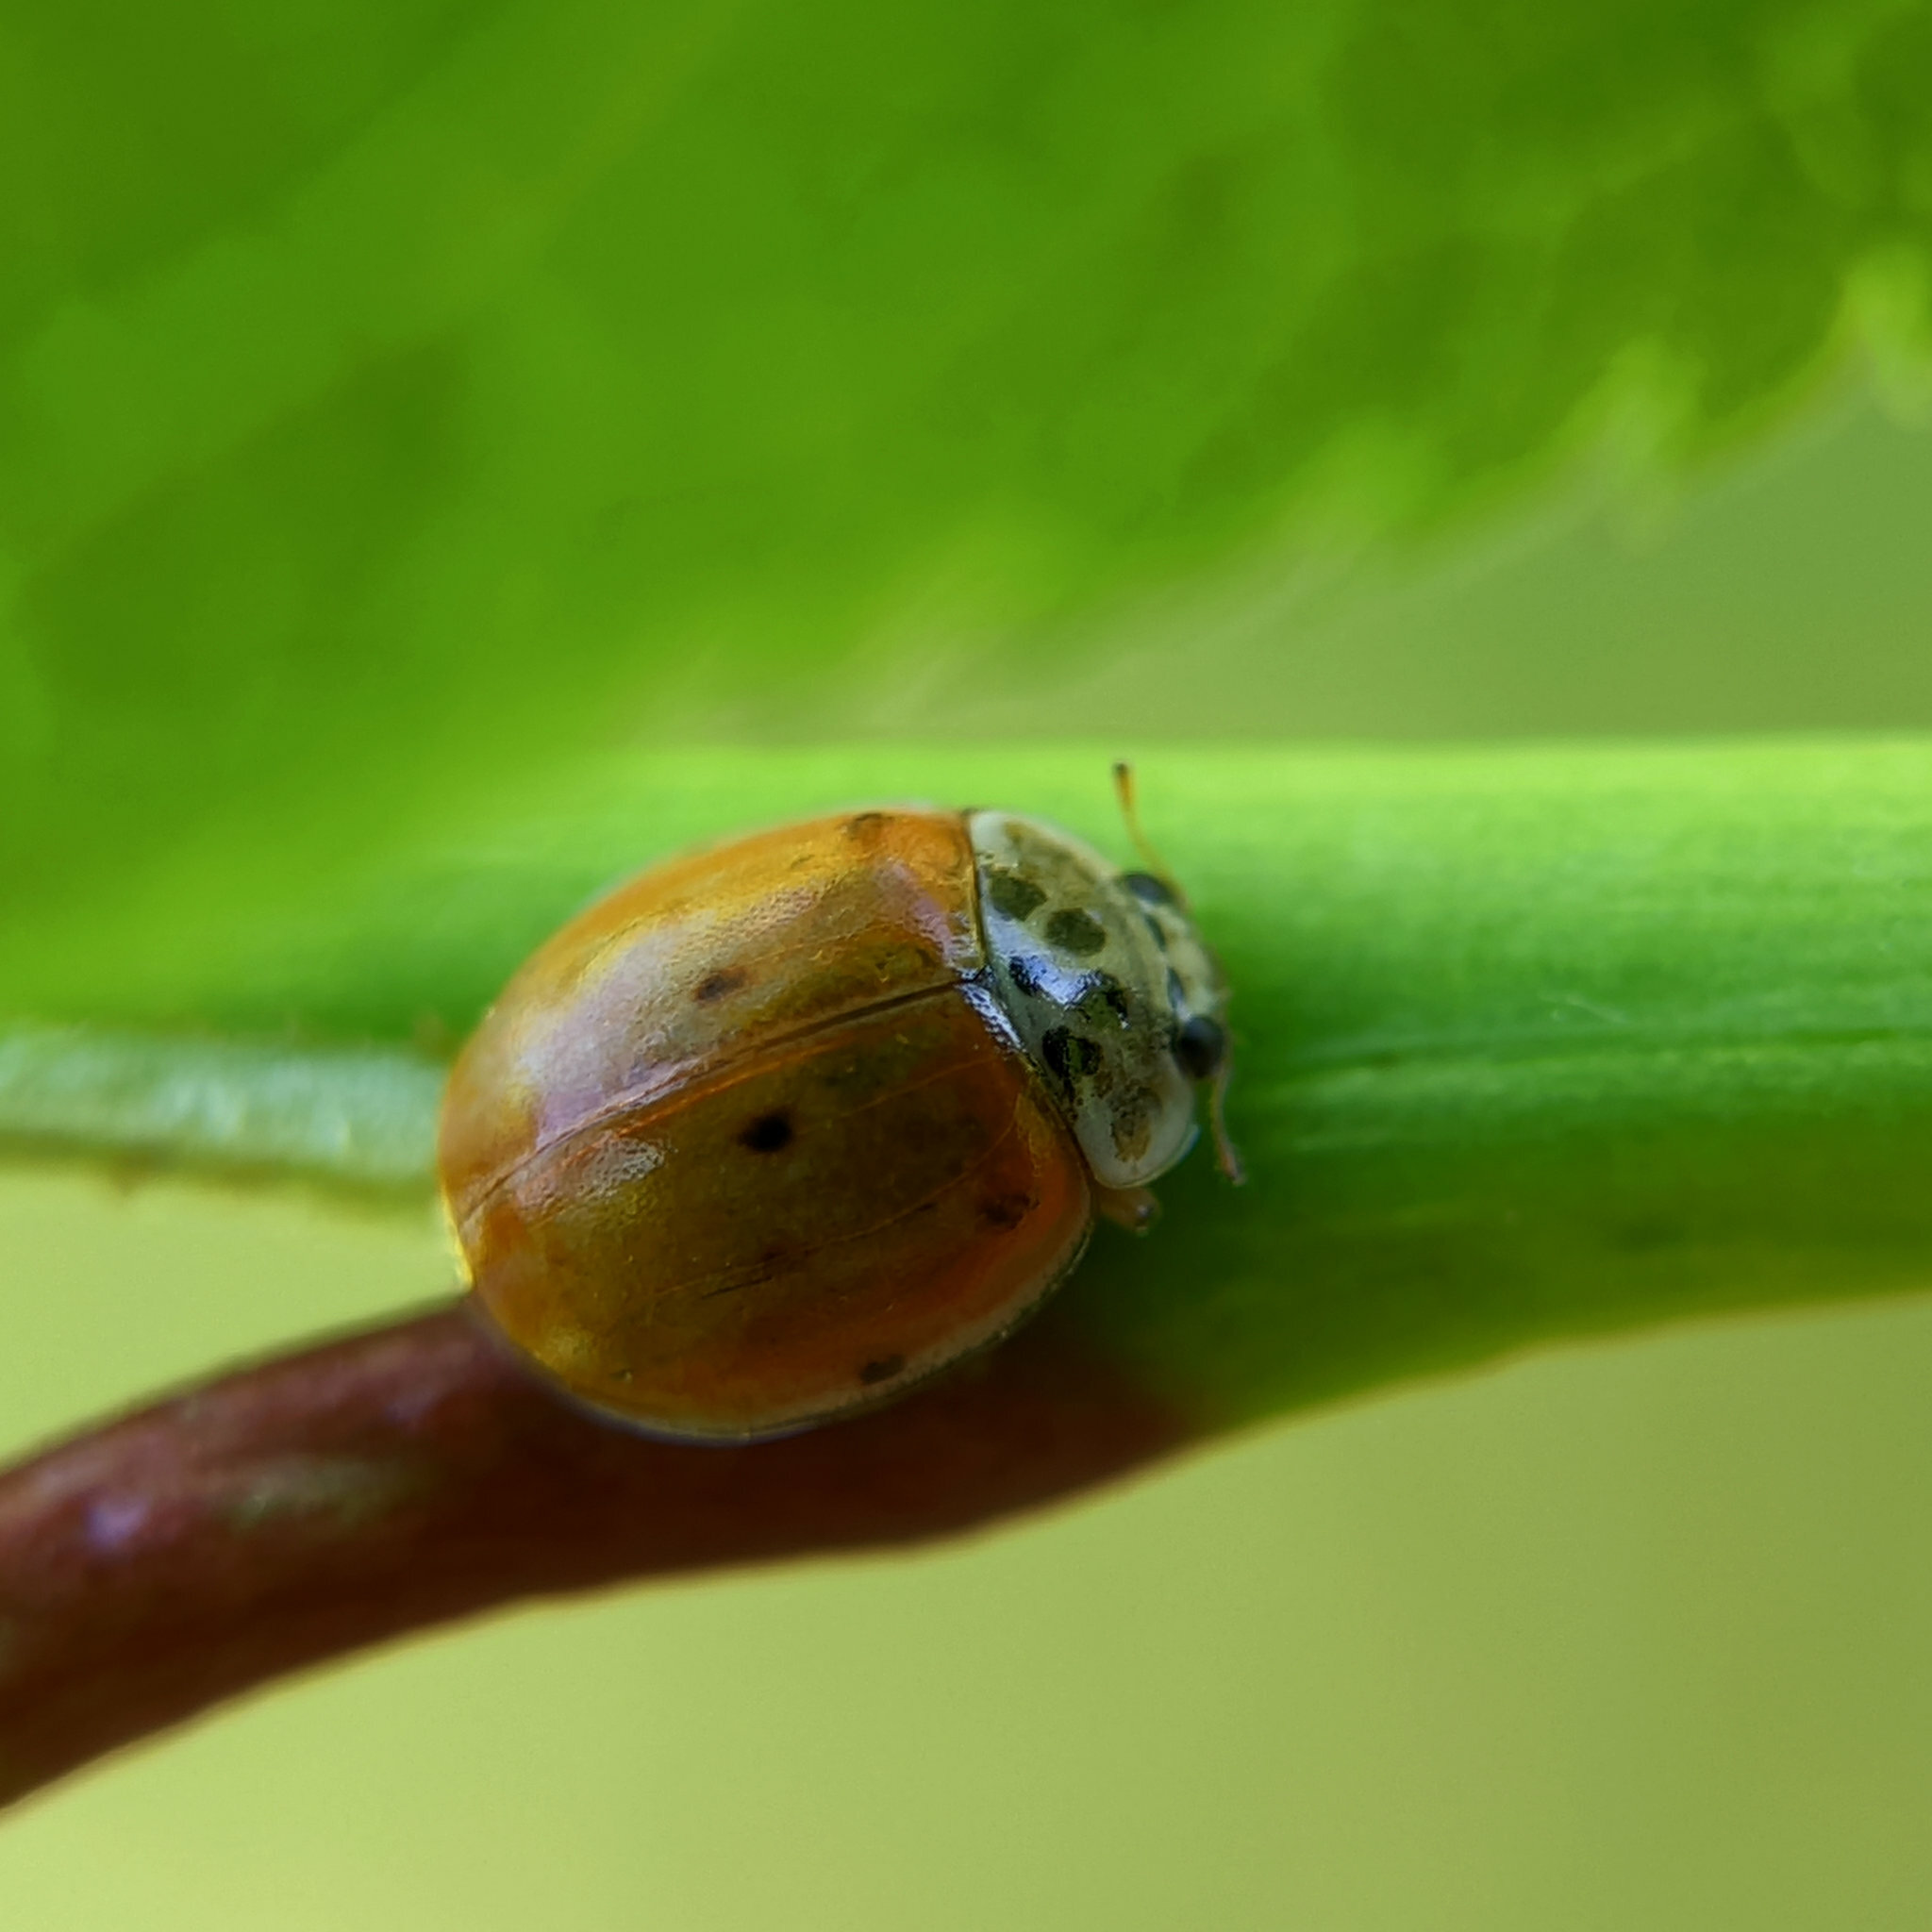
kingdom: Animalia
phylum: Arthropoda
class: Insecta
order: Coleoptera
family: Coccinellidae
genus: Adalia
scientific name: Adalia decempunctata
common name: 10-spot ladybird
